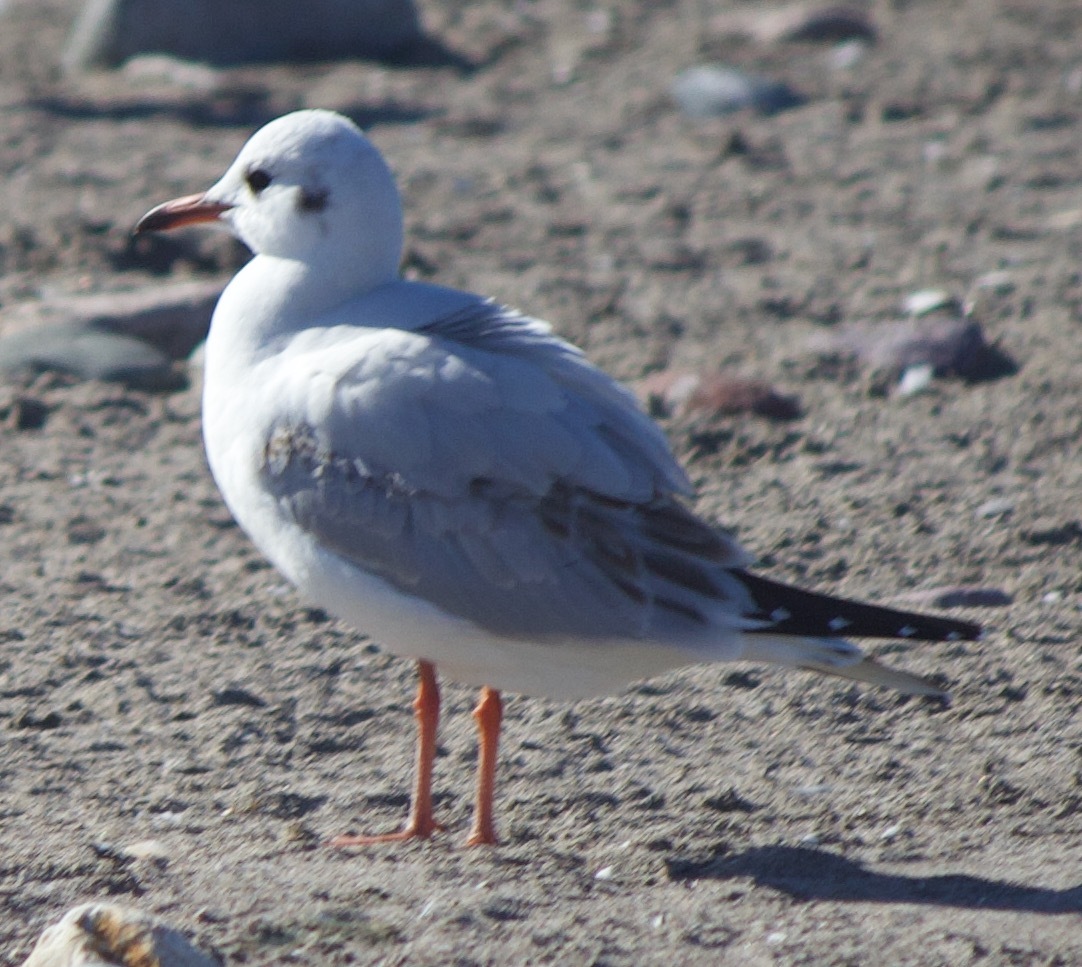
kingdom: Animalia
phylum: Chordata
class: Aves
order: Charadriiformes
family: Laridae
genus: Chroicocephalus
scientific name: Chroicocephalus maculipennis
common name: Brown-hooded gull
